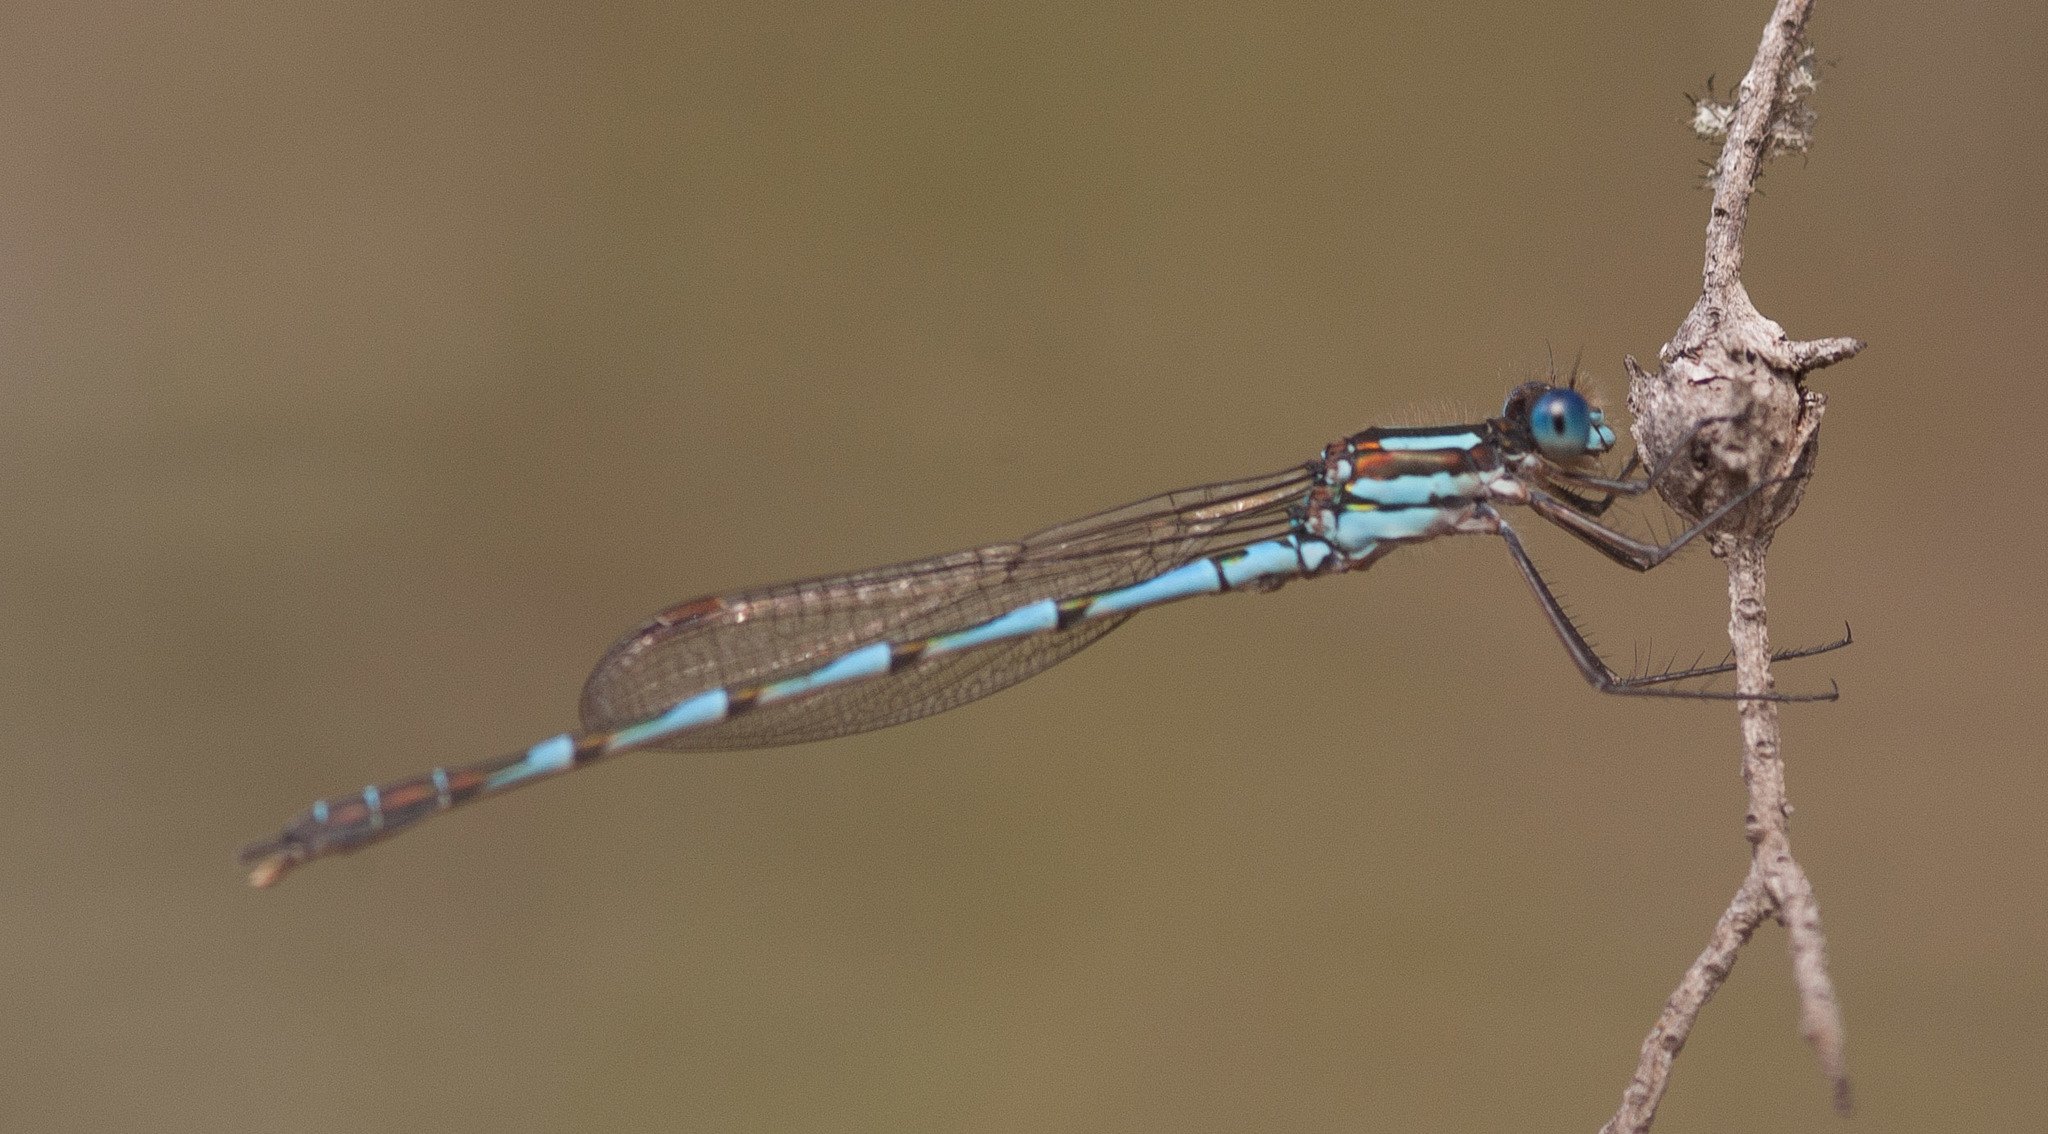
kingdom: Animalia
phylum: Arthropoda
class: Insecta
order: Odonata
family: Lestidae
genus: Austrolestes
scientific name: Austrolestes annulosus
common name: Blue ringtail
